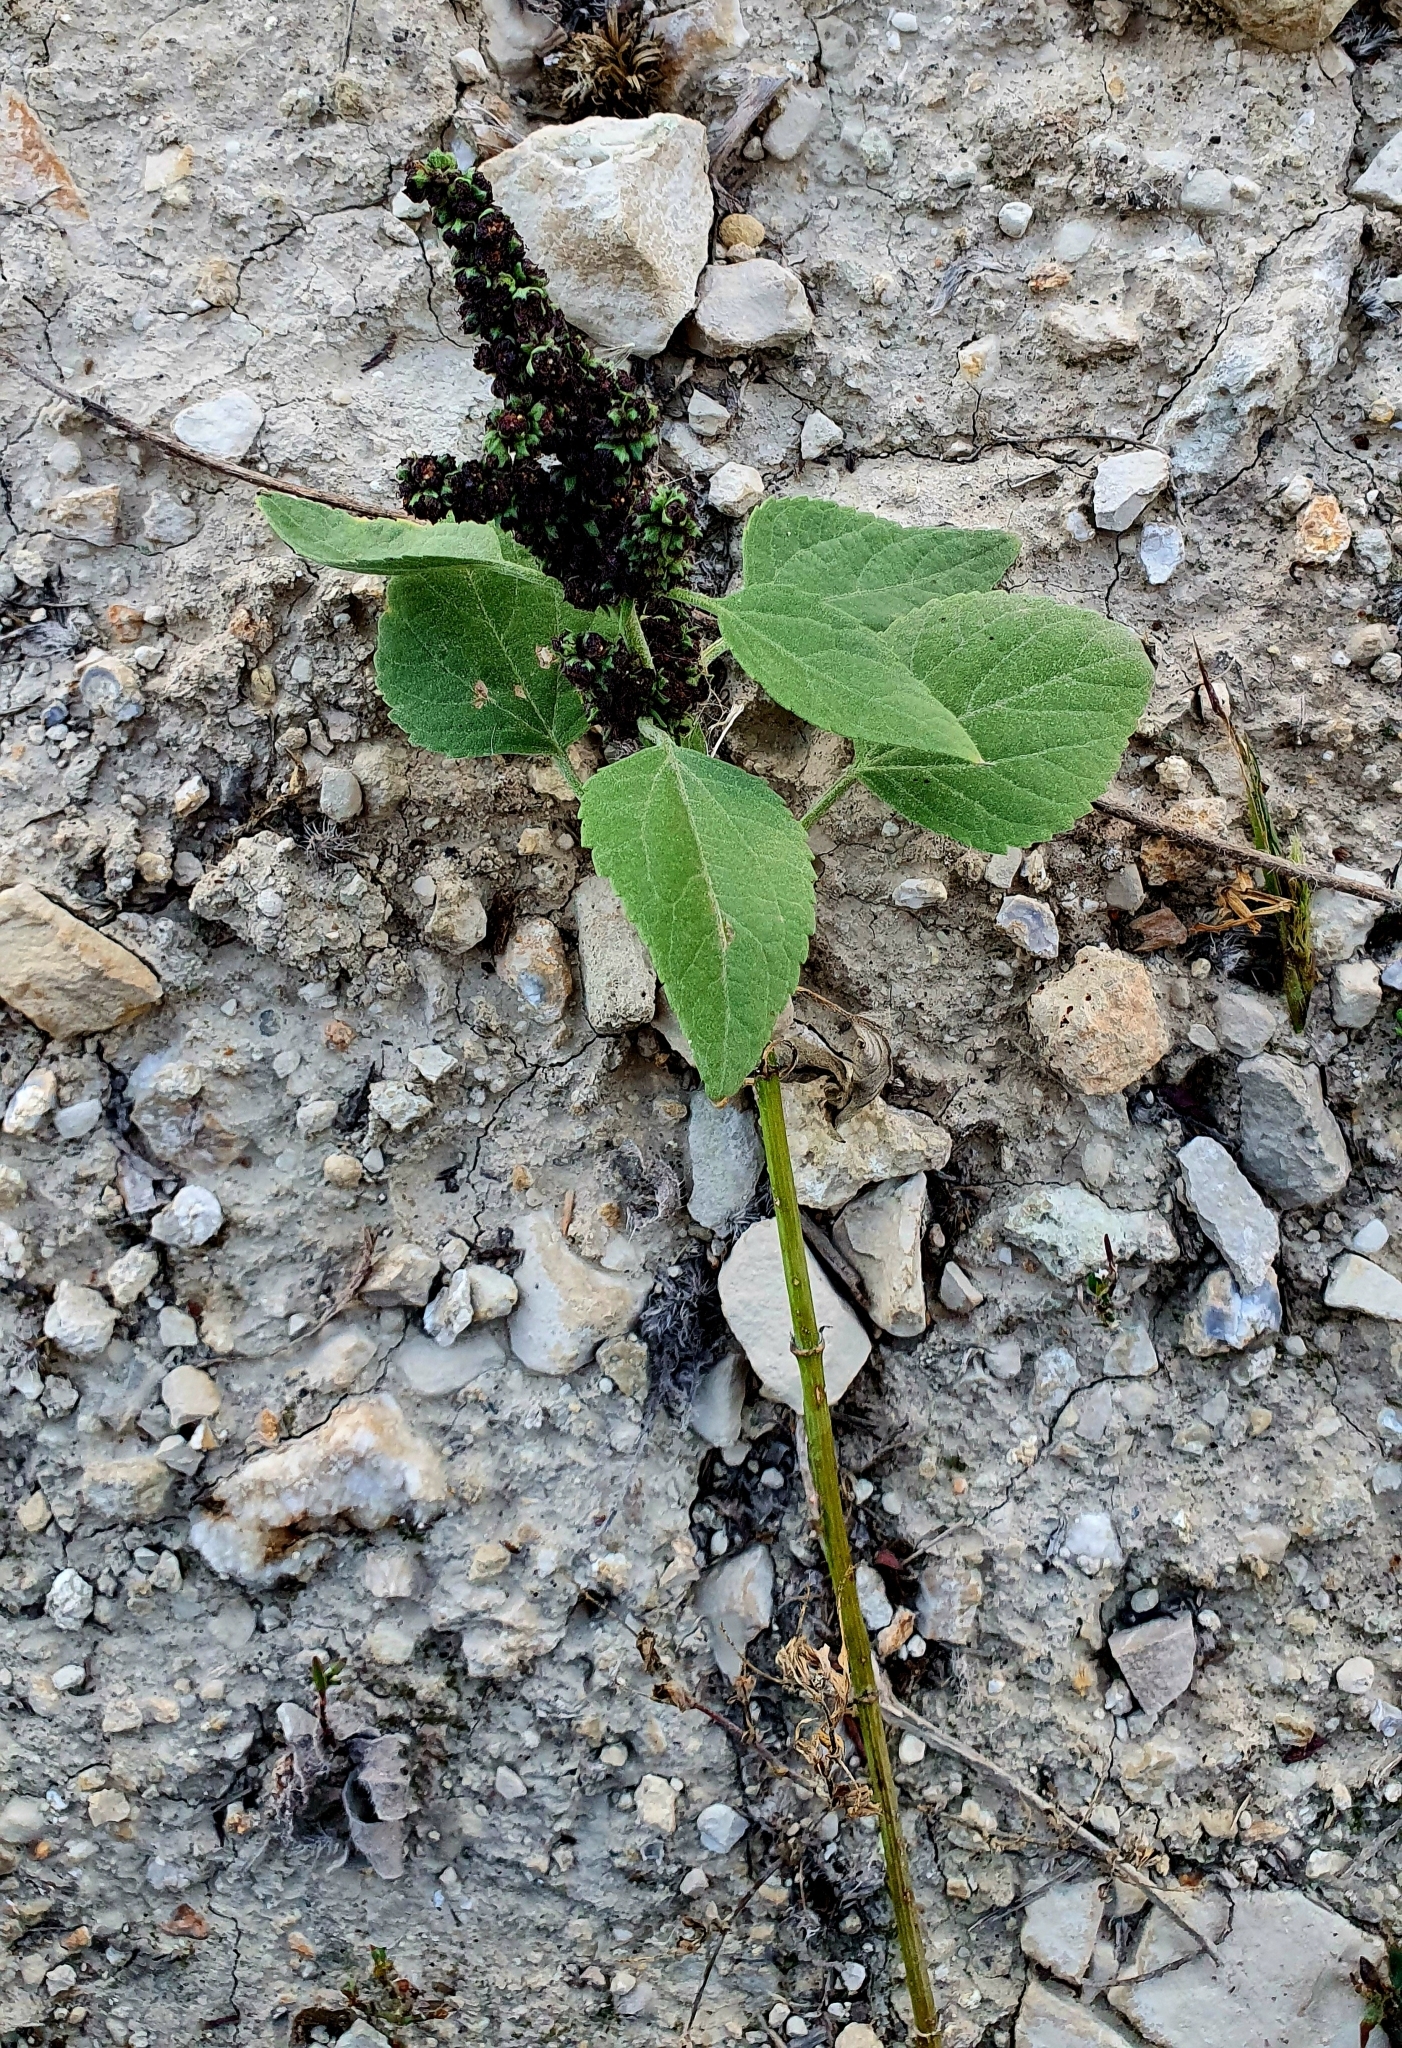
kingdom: Plantae
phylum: Tracheophyta
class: Magnoliopsida
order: Asterales
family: Asteraceae
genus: Cyclachaena
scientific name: Cyclachaena xanthiifolia
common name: Giant sumpweed
